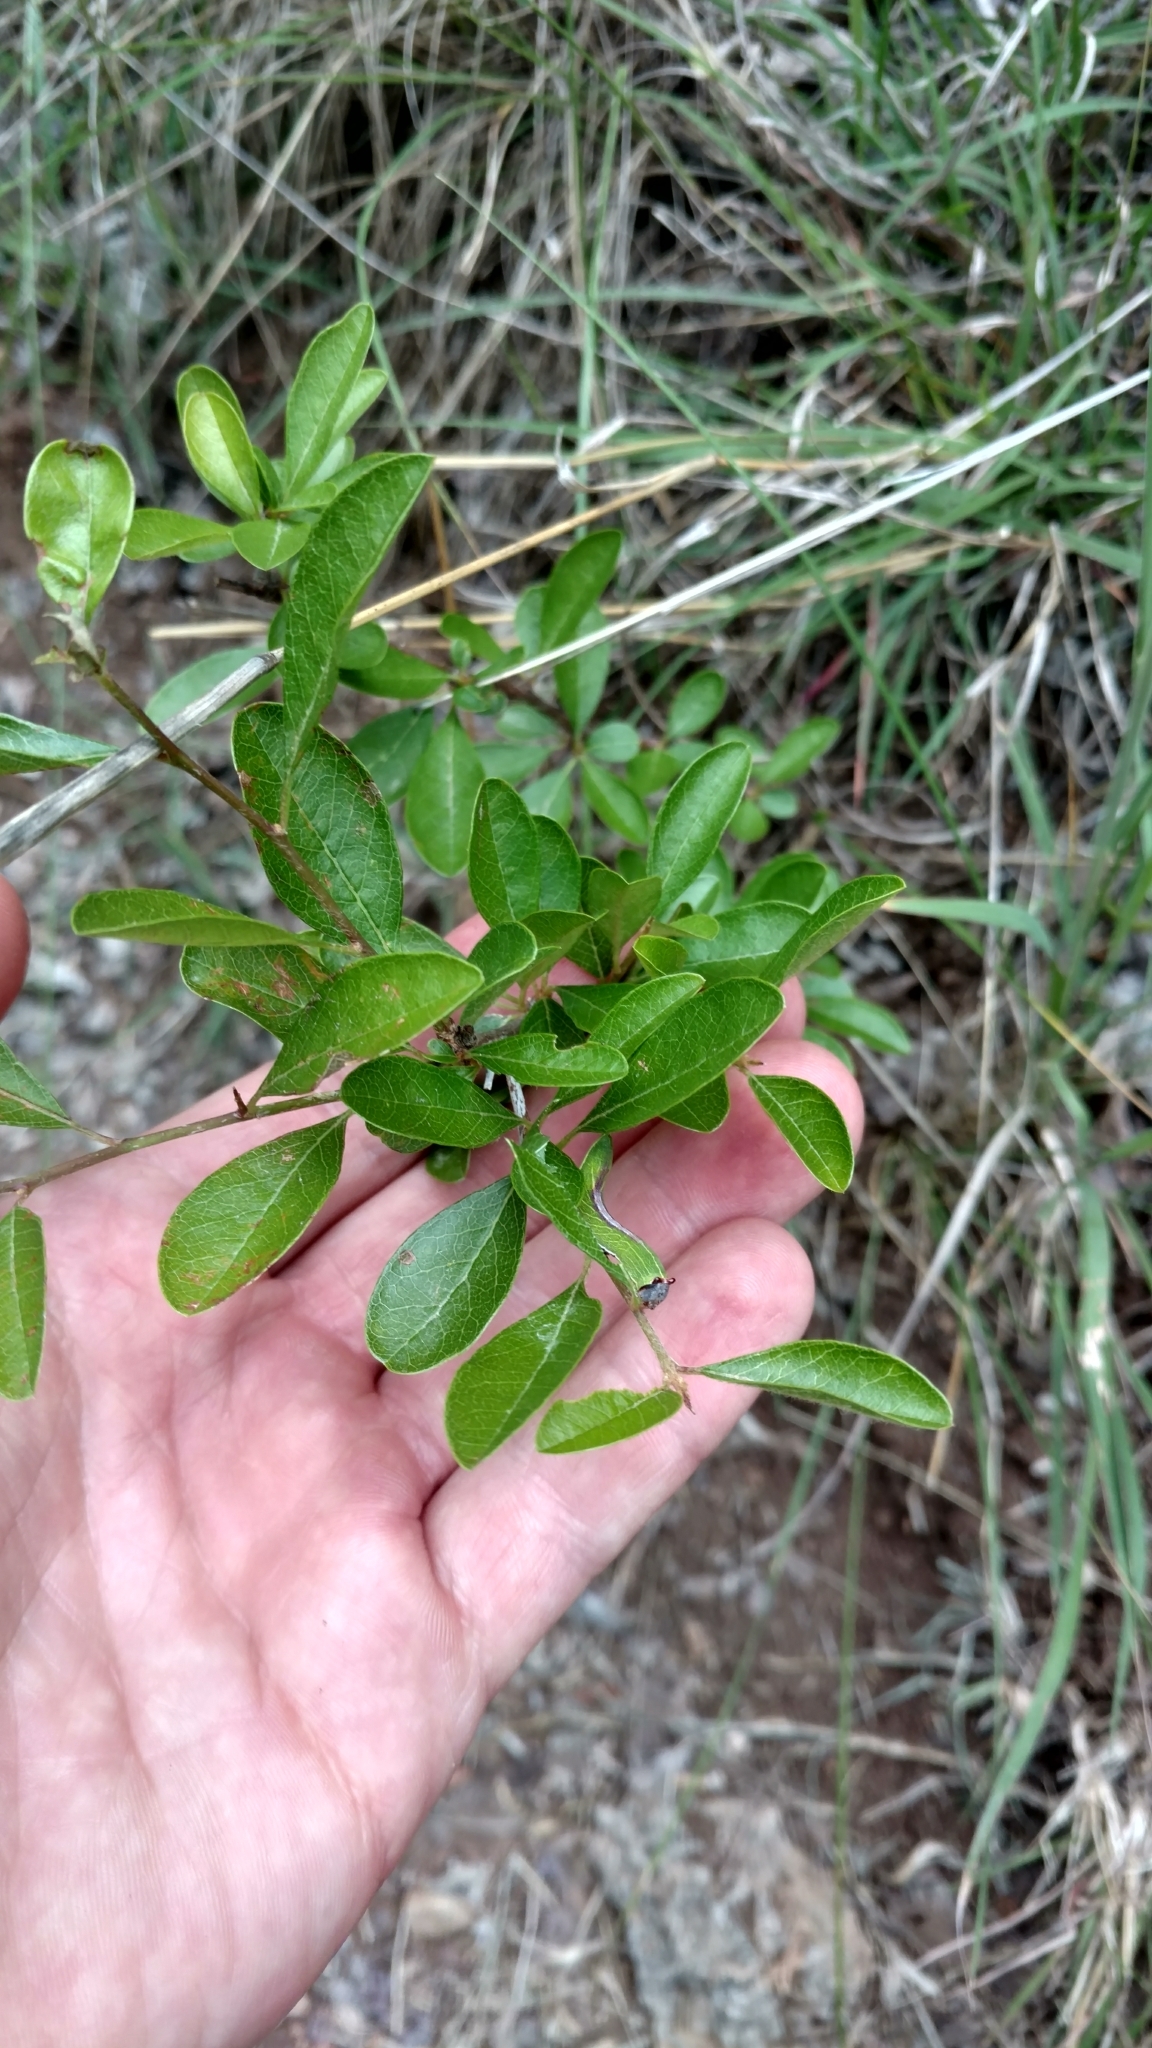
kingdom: Plantae
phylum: Tracheophyta
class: Magnoliopsida
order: Ericales
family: Sapotaceae
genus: Sideroxylon
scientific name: Sideroxylon lanuginosum
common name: Chittamwood
